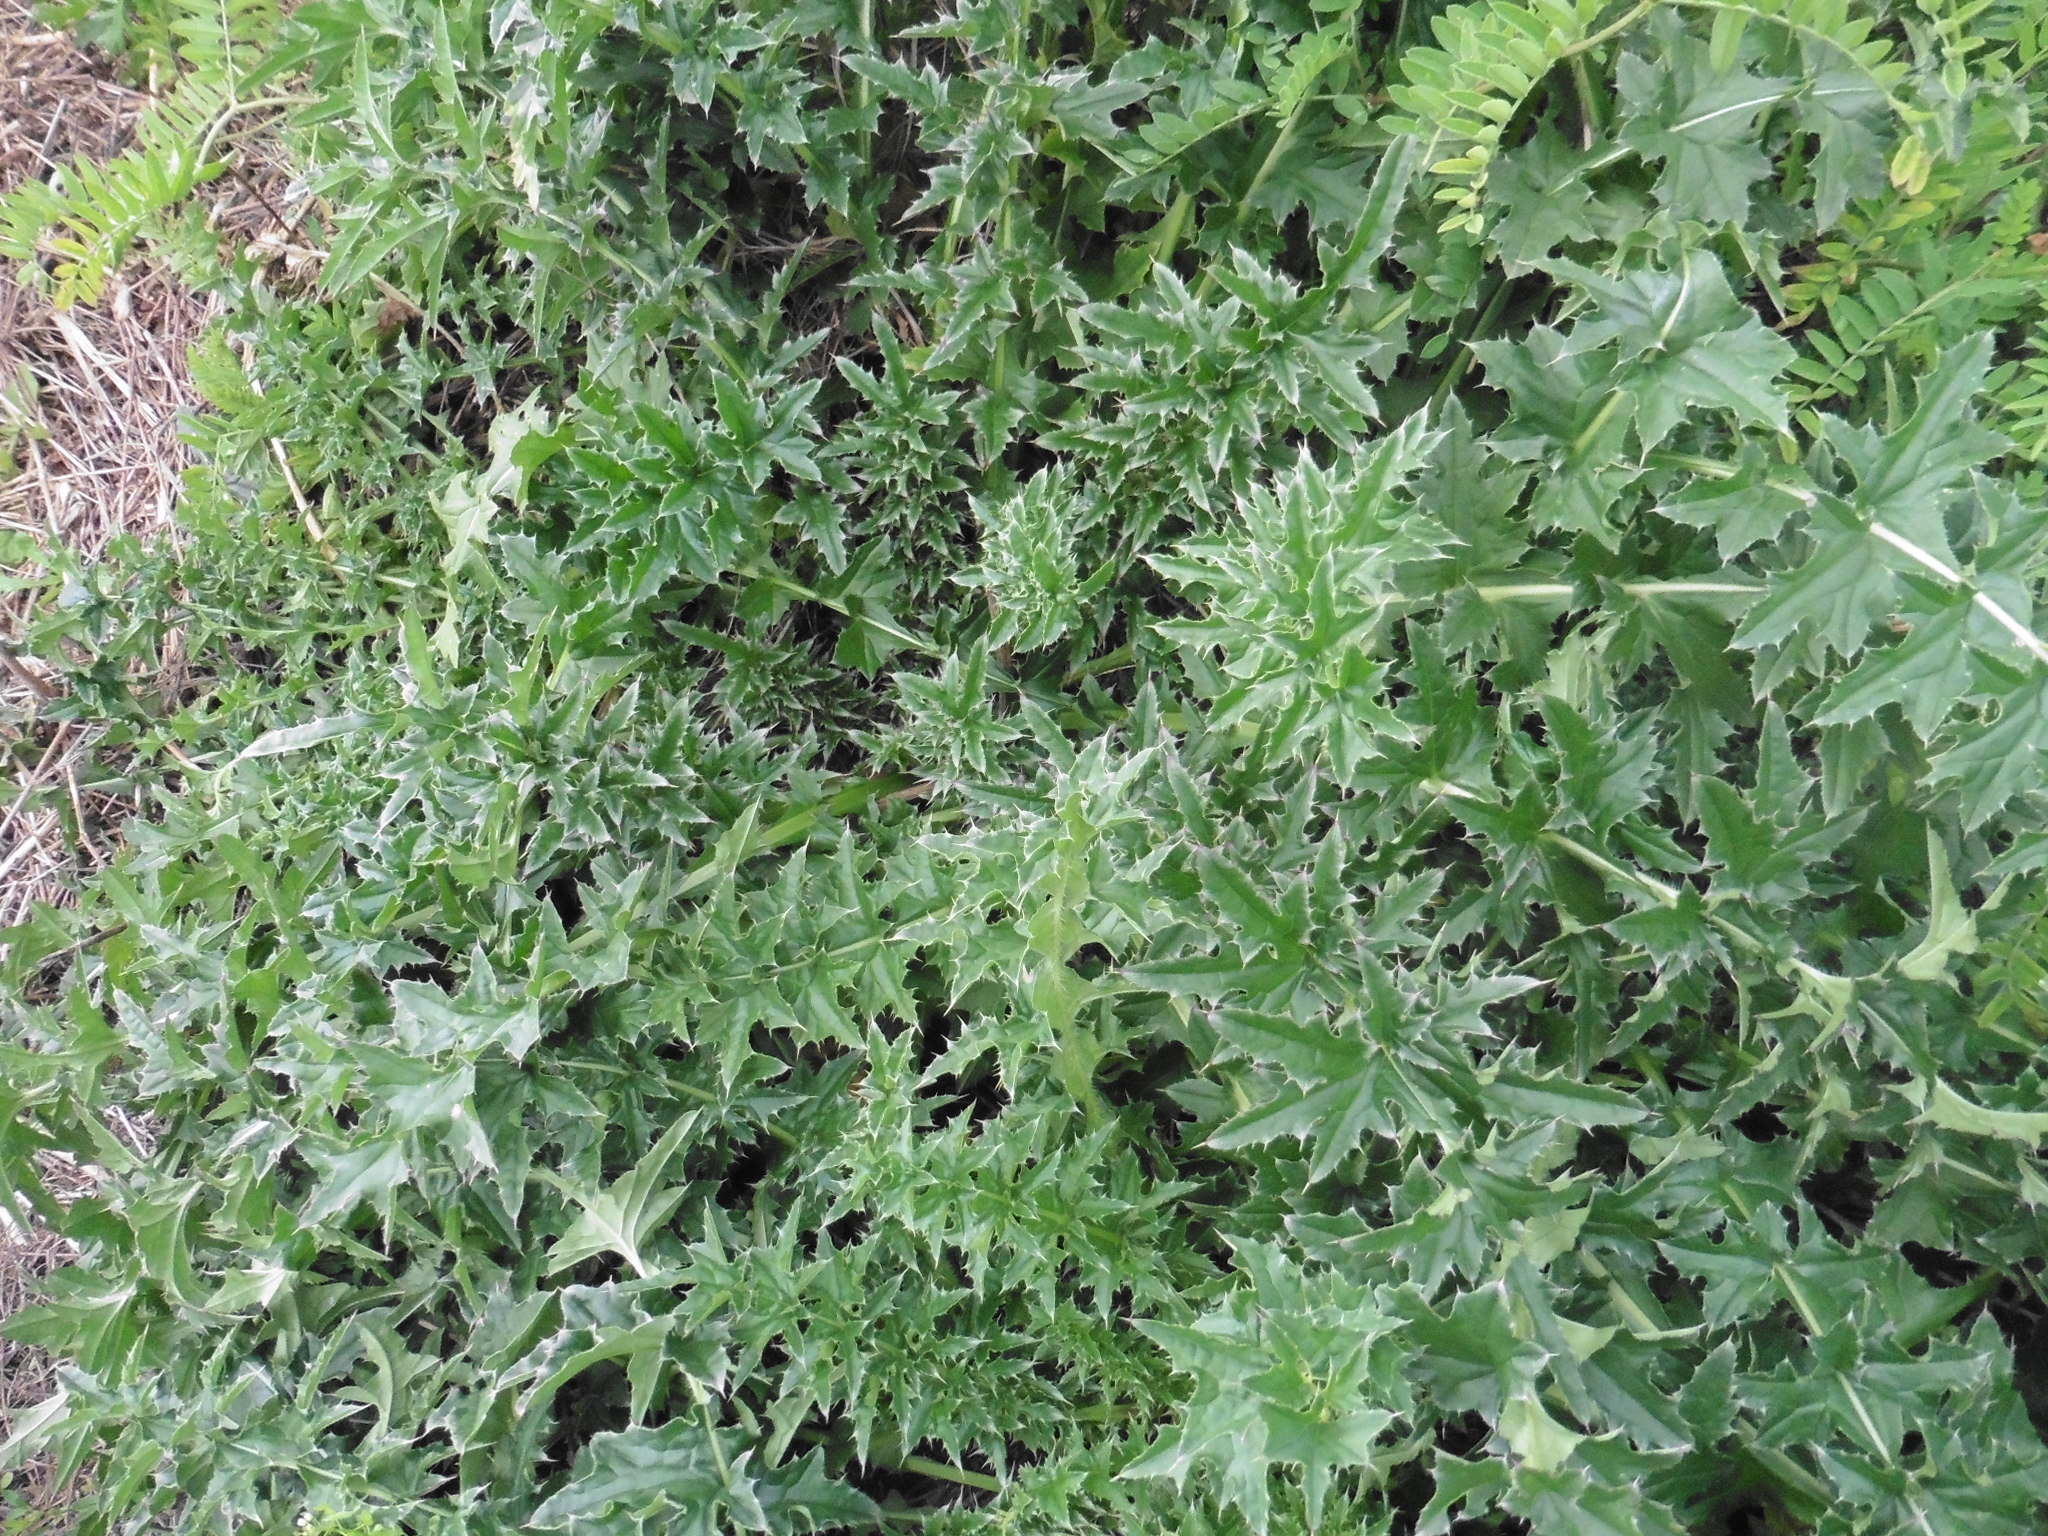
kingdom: Plantae
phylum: Tracheophyta
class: Magnoliopsida
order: Asterales
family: Asteraceae
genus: Carduus
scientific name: Carduus acanthoides
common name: Plumeless thistle
